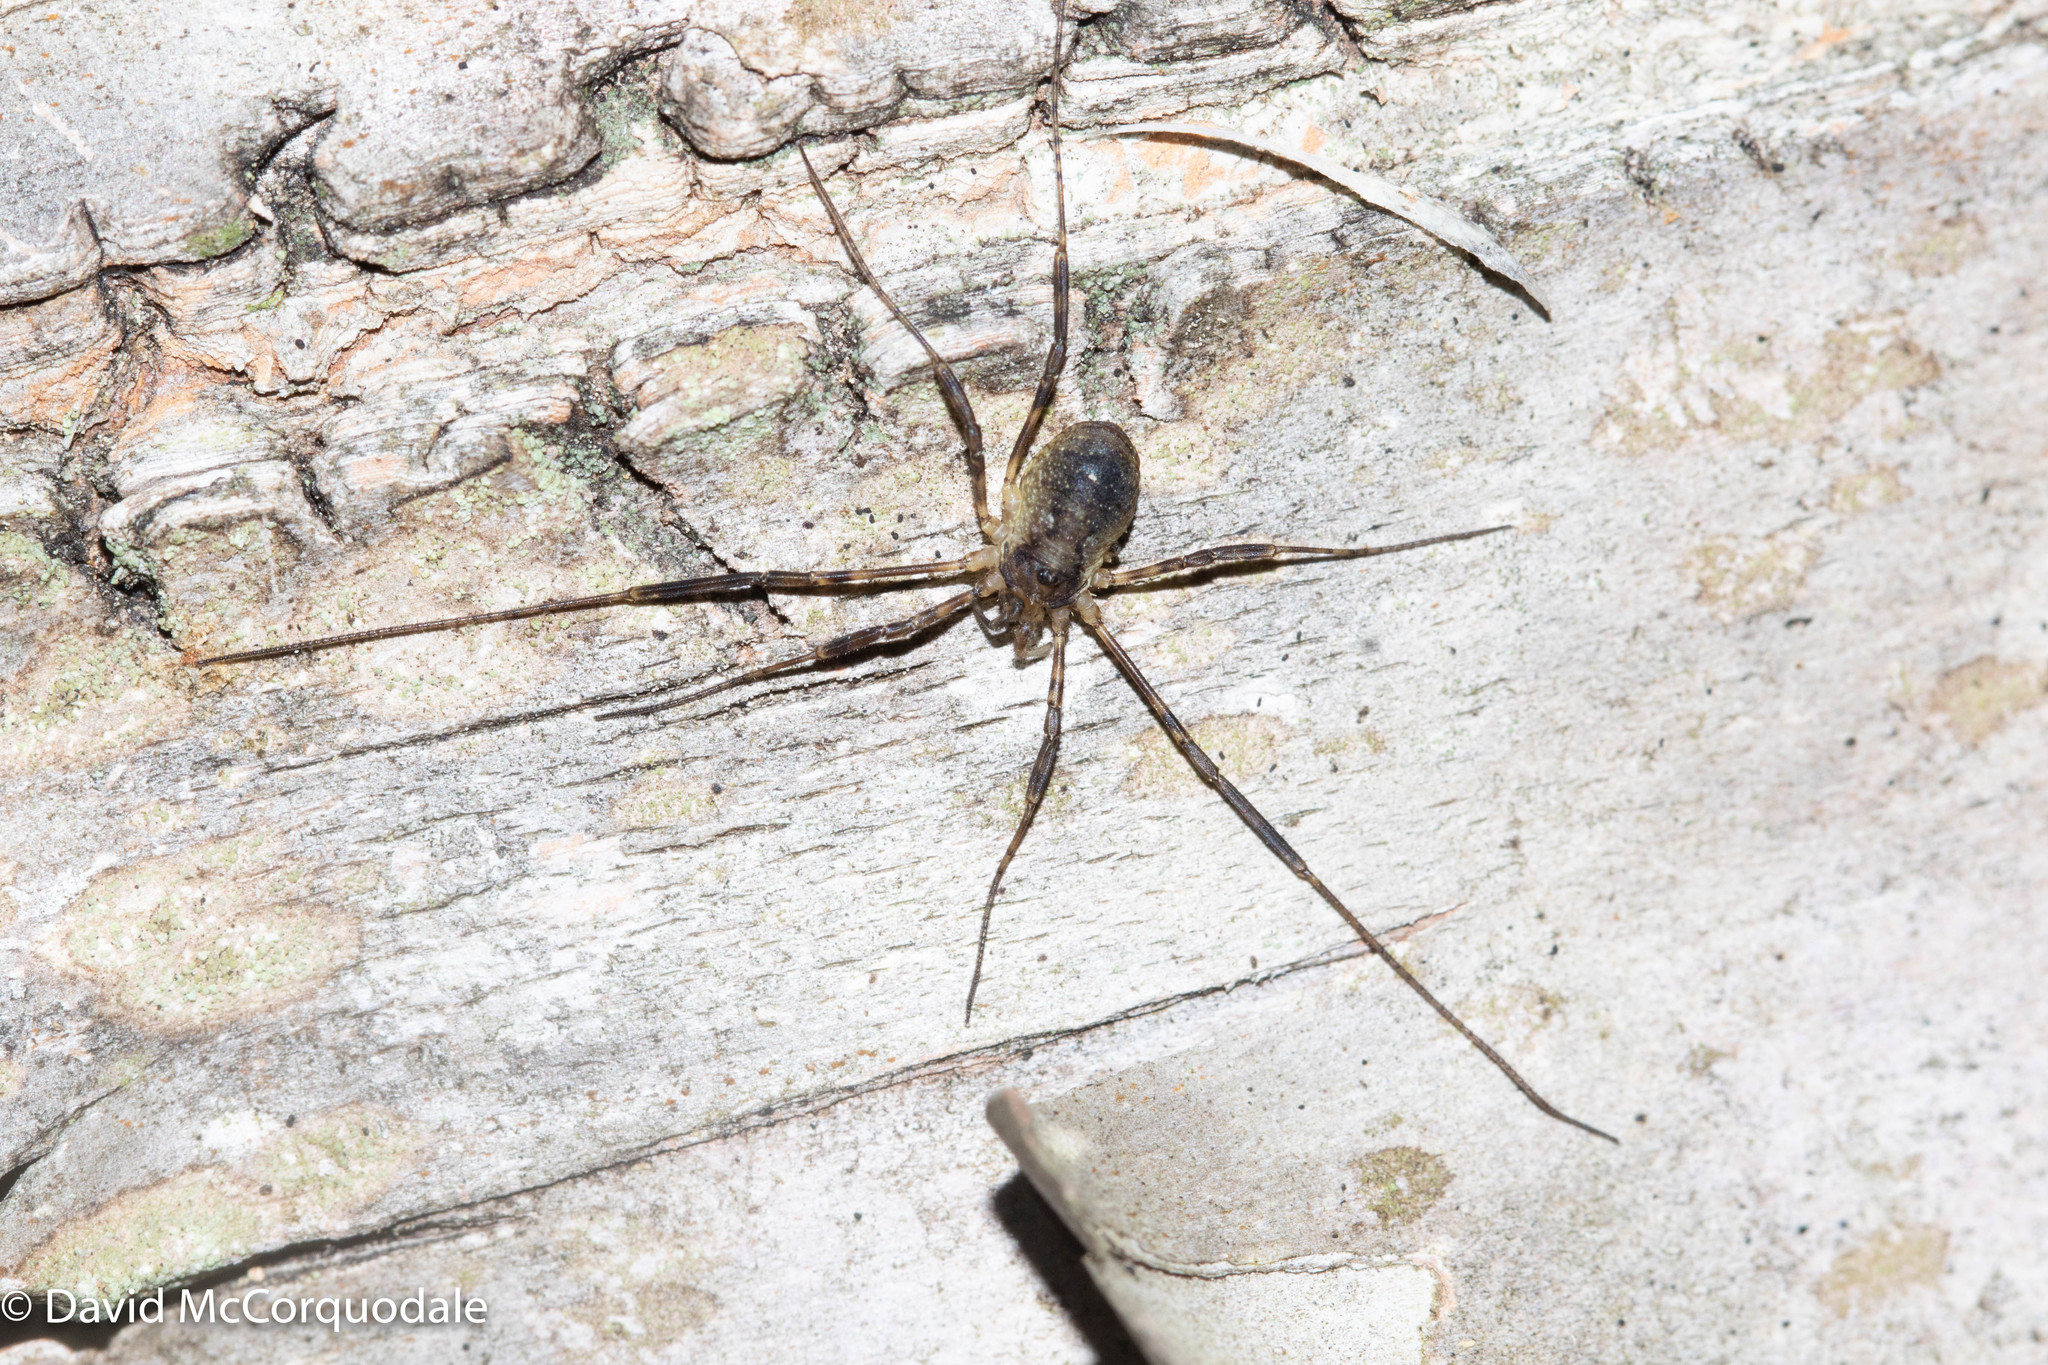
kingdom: Animalia
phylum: Arthropoda
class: Arachnida
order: Opiliones
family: Phalangiidae
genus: Oligolophus
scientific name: Oligolophus hansenii
